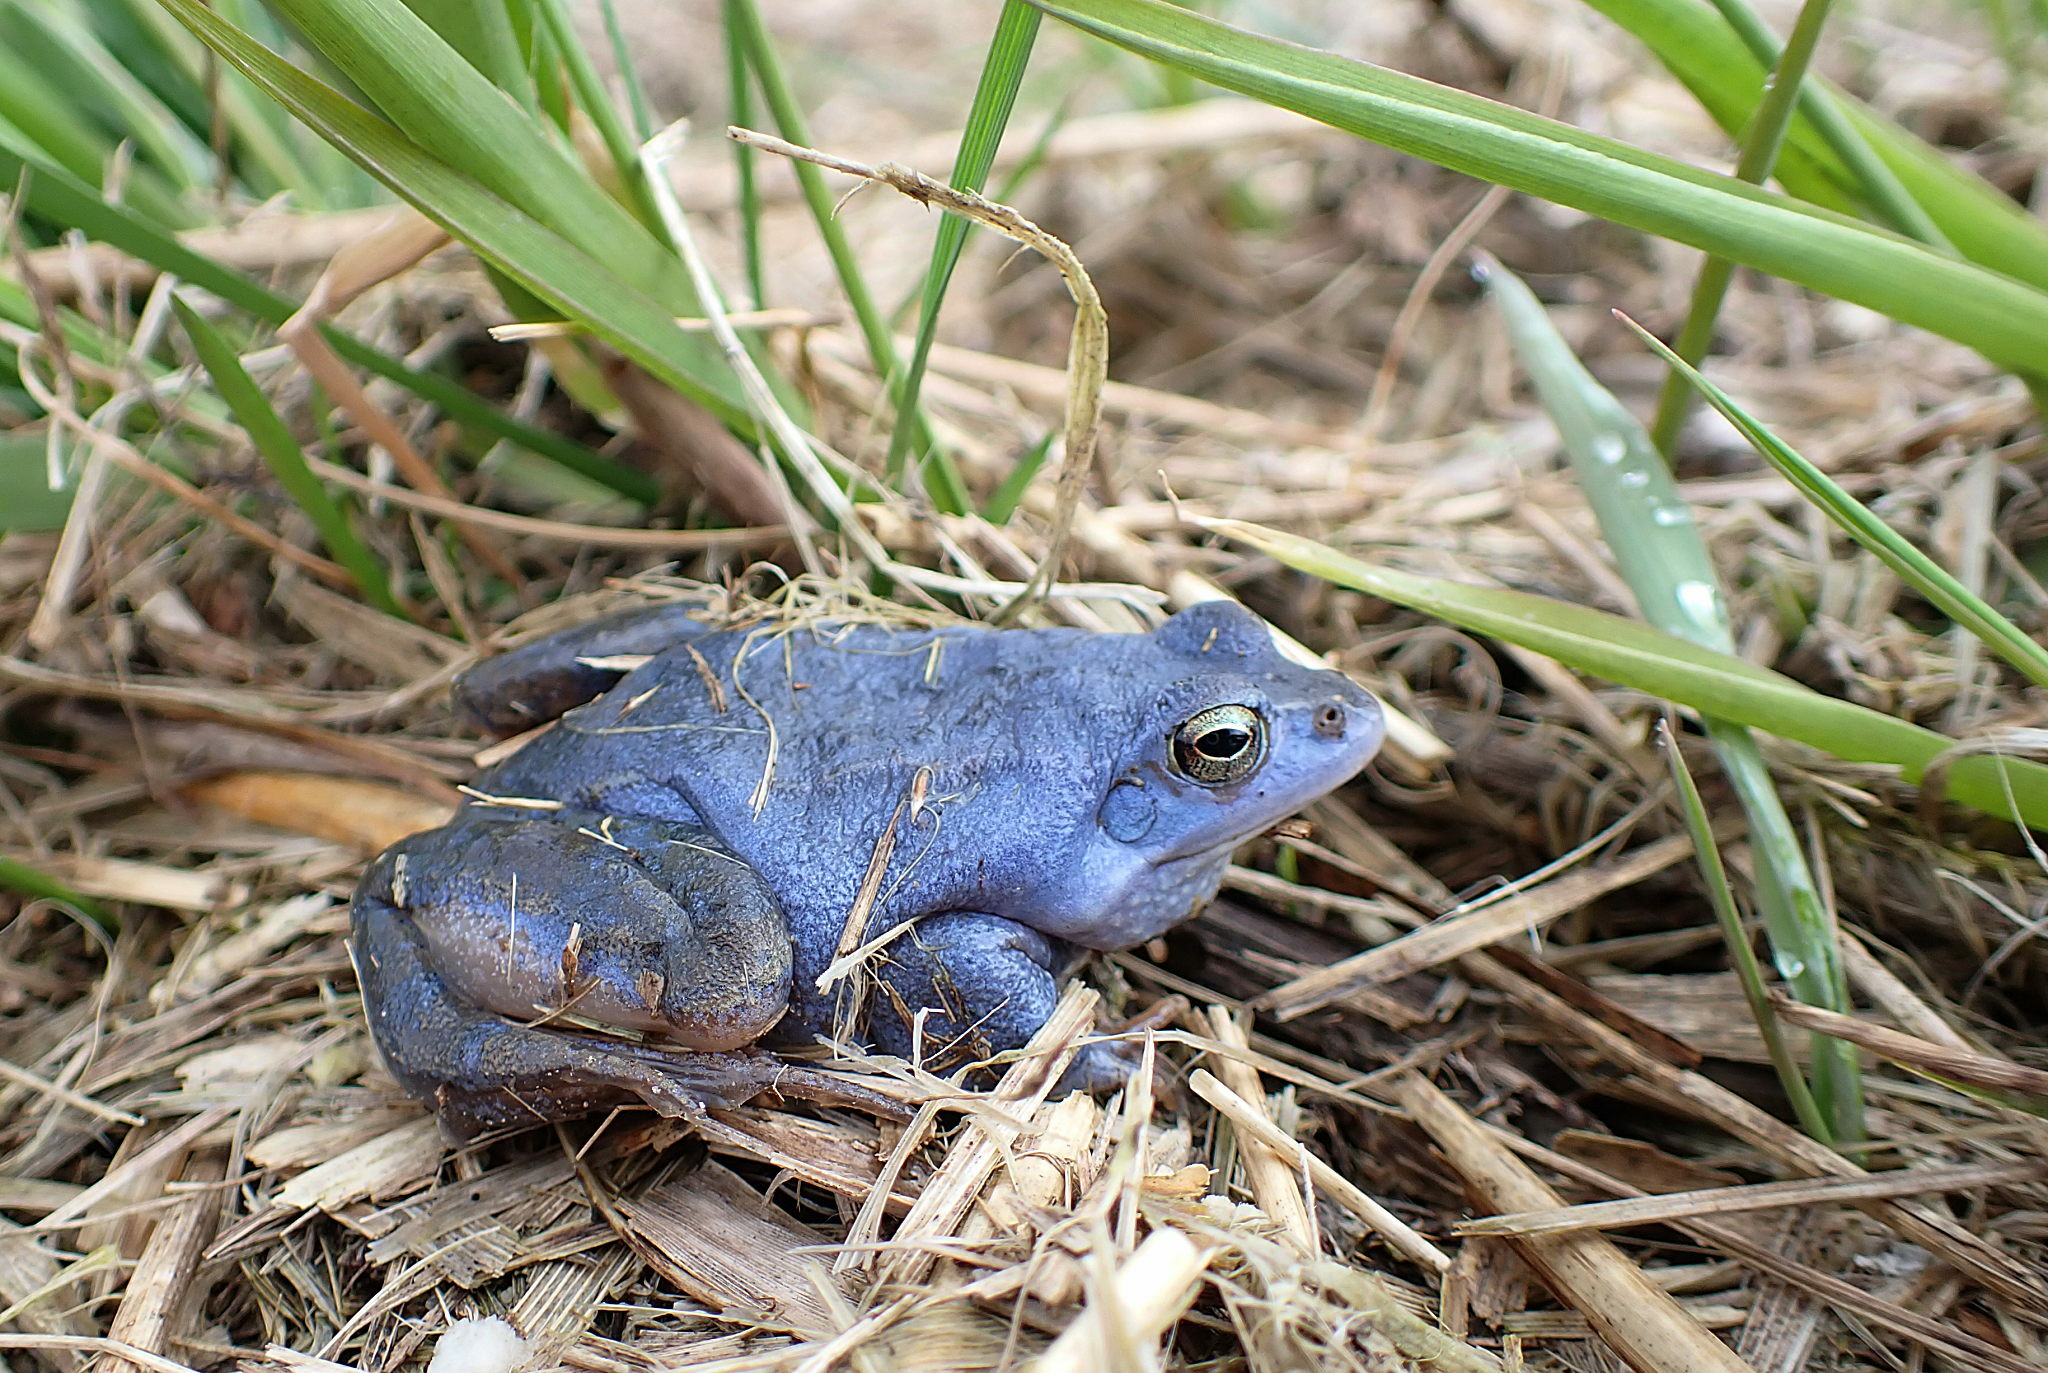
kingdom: Animalia
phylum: Chordata
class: Amphibia
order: Anura
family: Ranidae
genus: Rana
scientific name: Rana arvalis
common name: Moor frog
